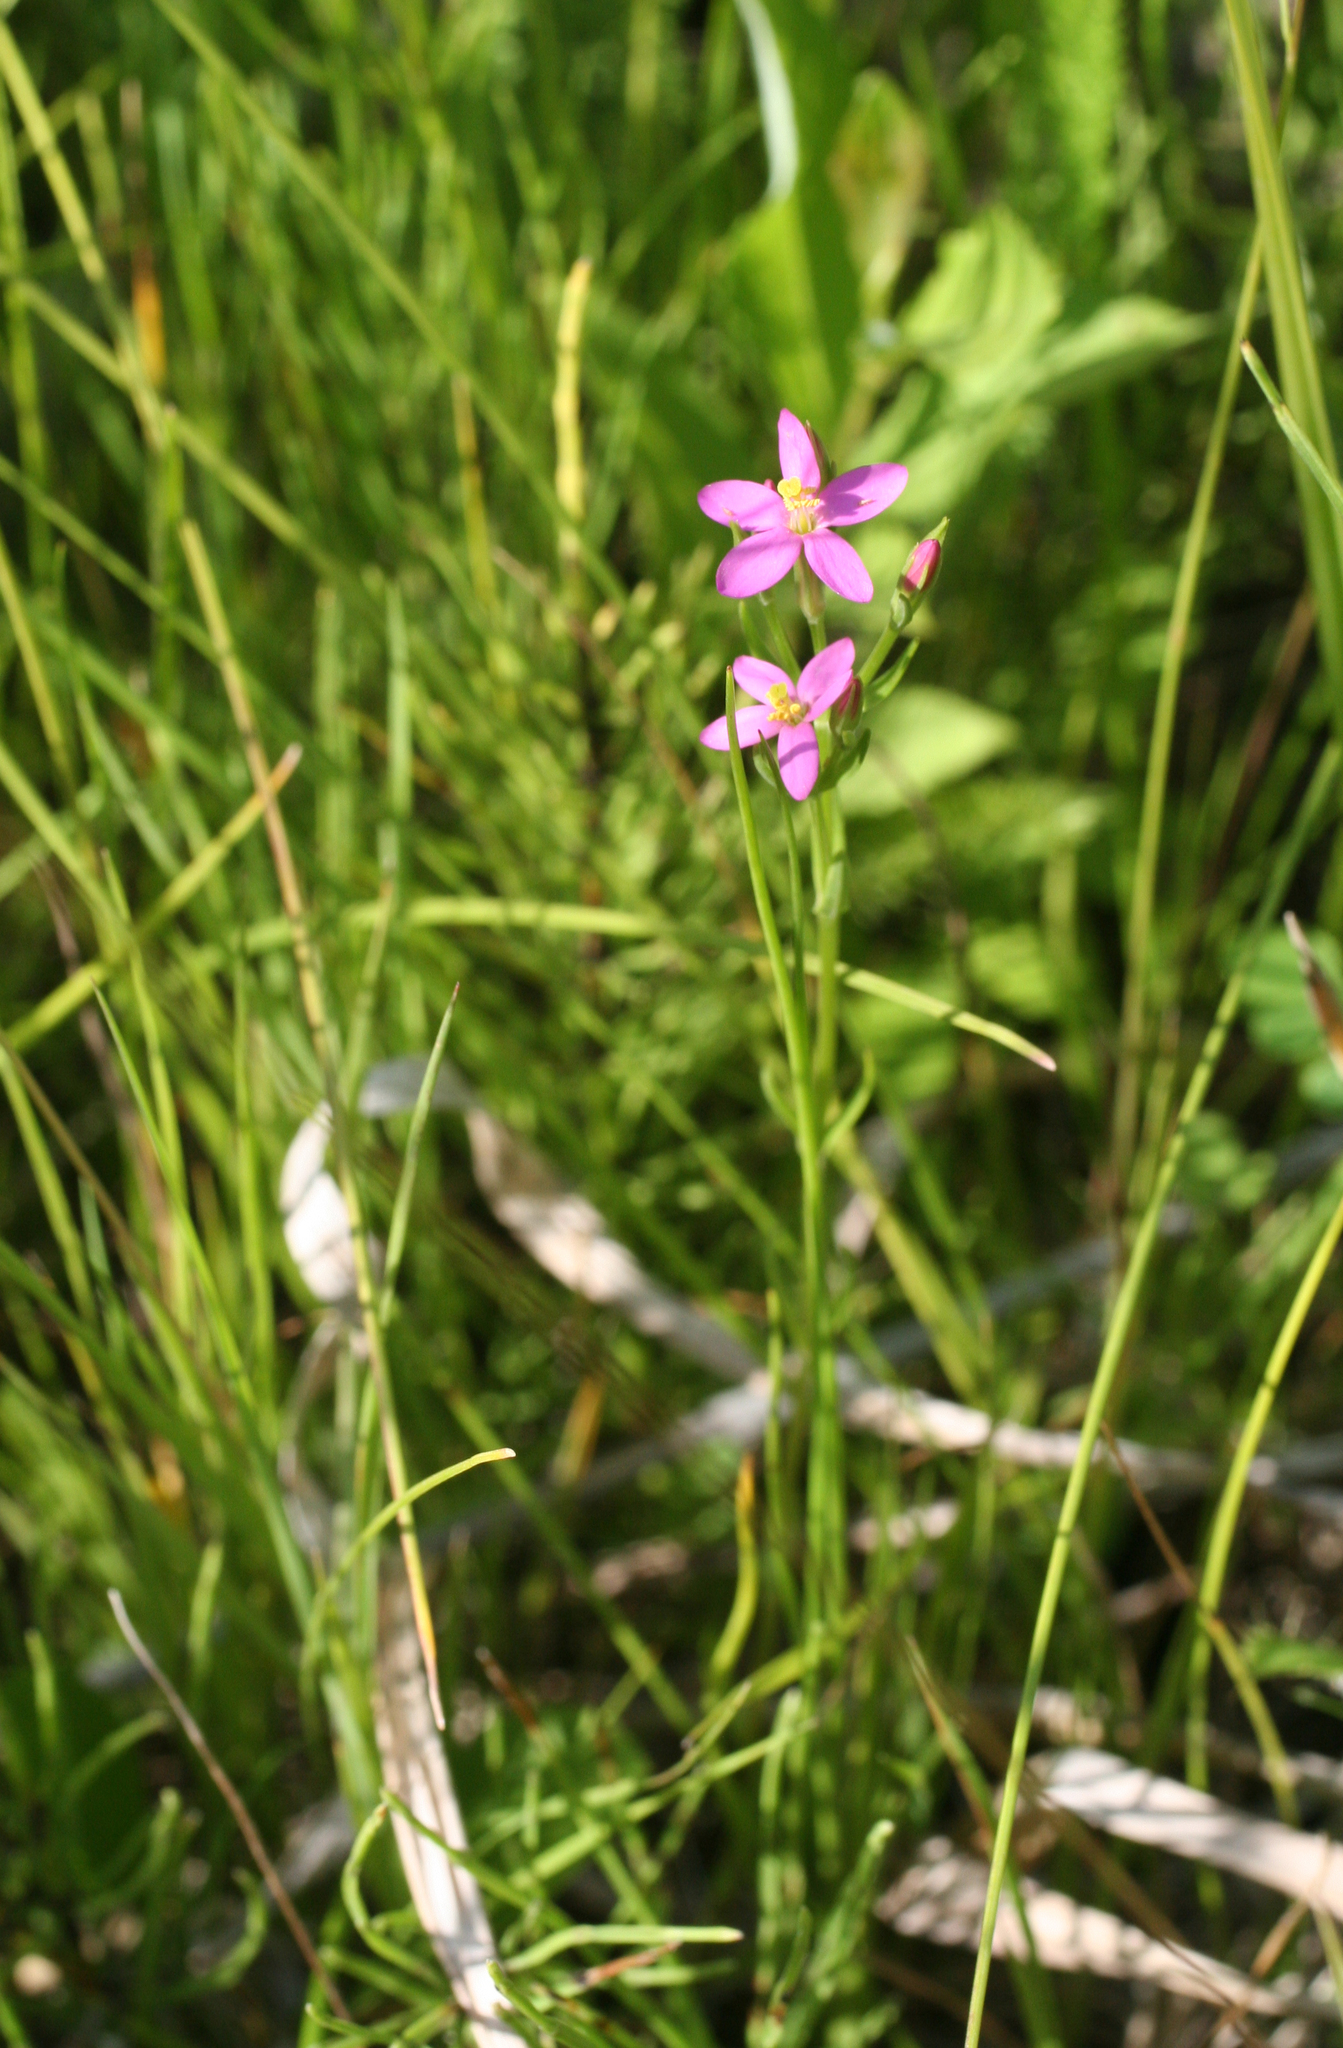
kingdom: Plantae
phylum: Tracheophyta
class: Magnoliopsida
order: Gentianales
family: Gentianaceae
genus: Centaurium
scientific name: Centaurium pulchellum
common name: Lesser centaury
